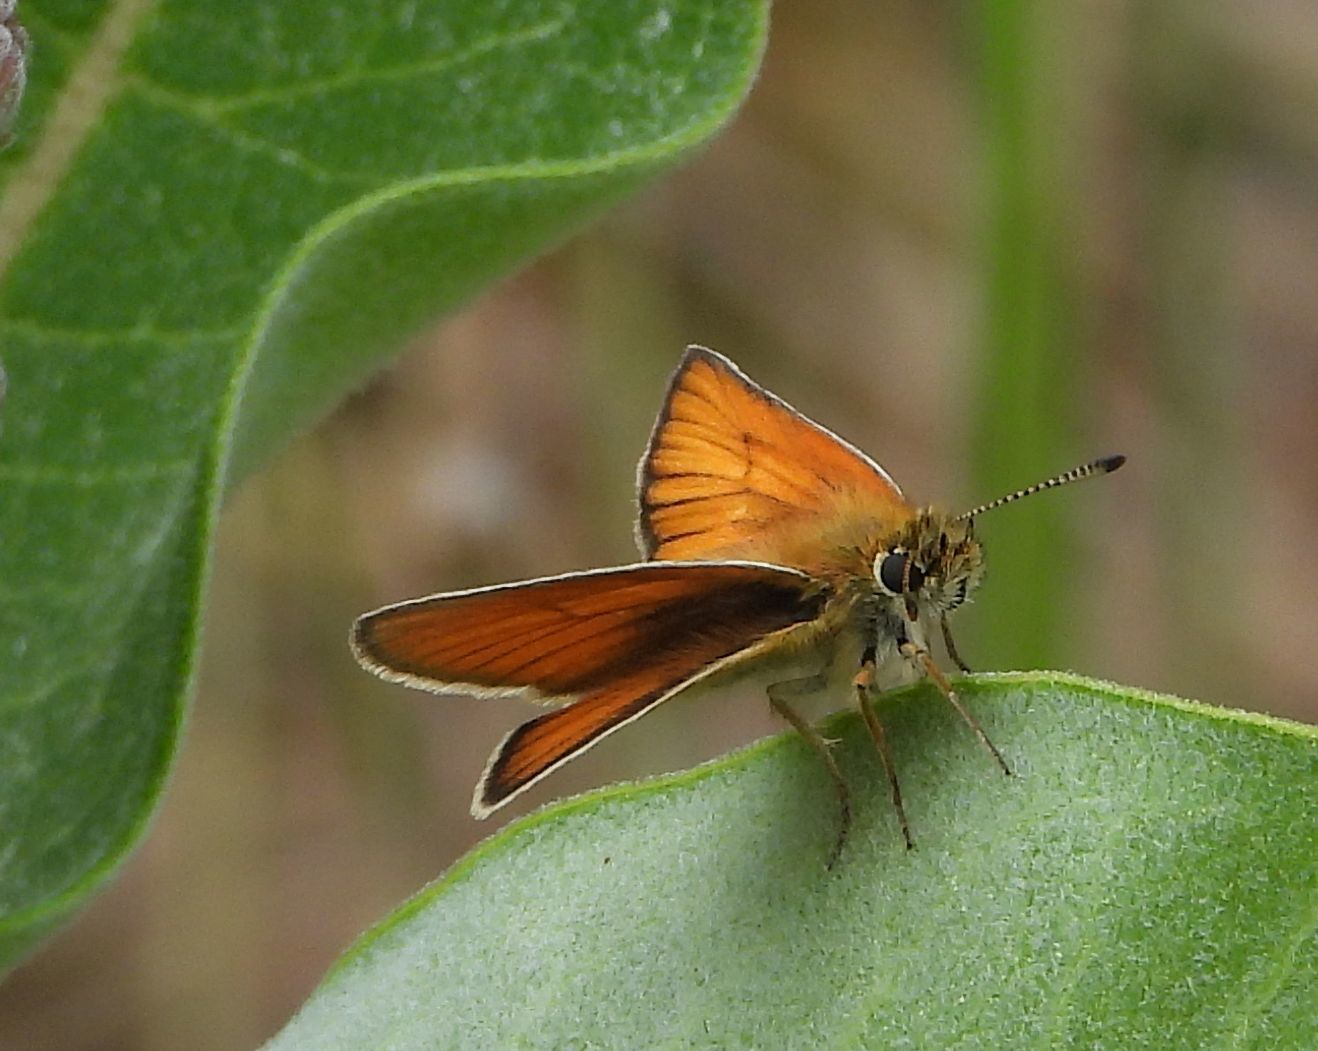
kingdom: Animalia
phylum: Arthropoda
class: Insecta
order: Lepidoptera
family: Hesperiidae
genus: Thymelicus
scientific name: Thymelicus lineola
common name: Essex skipper
